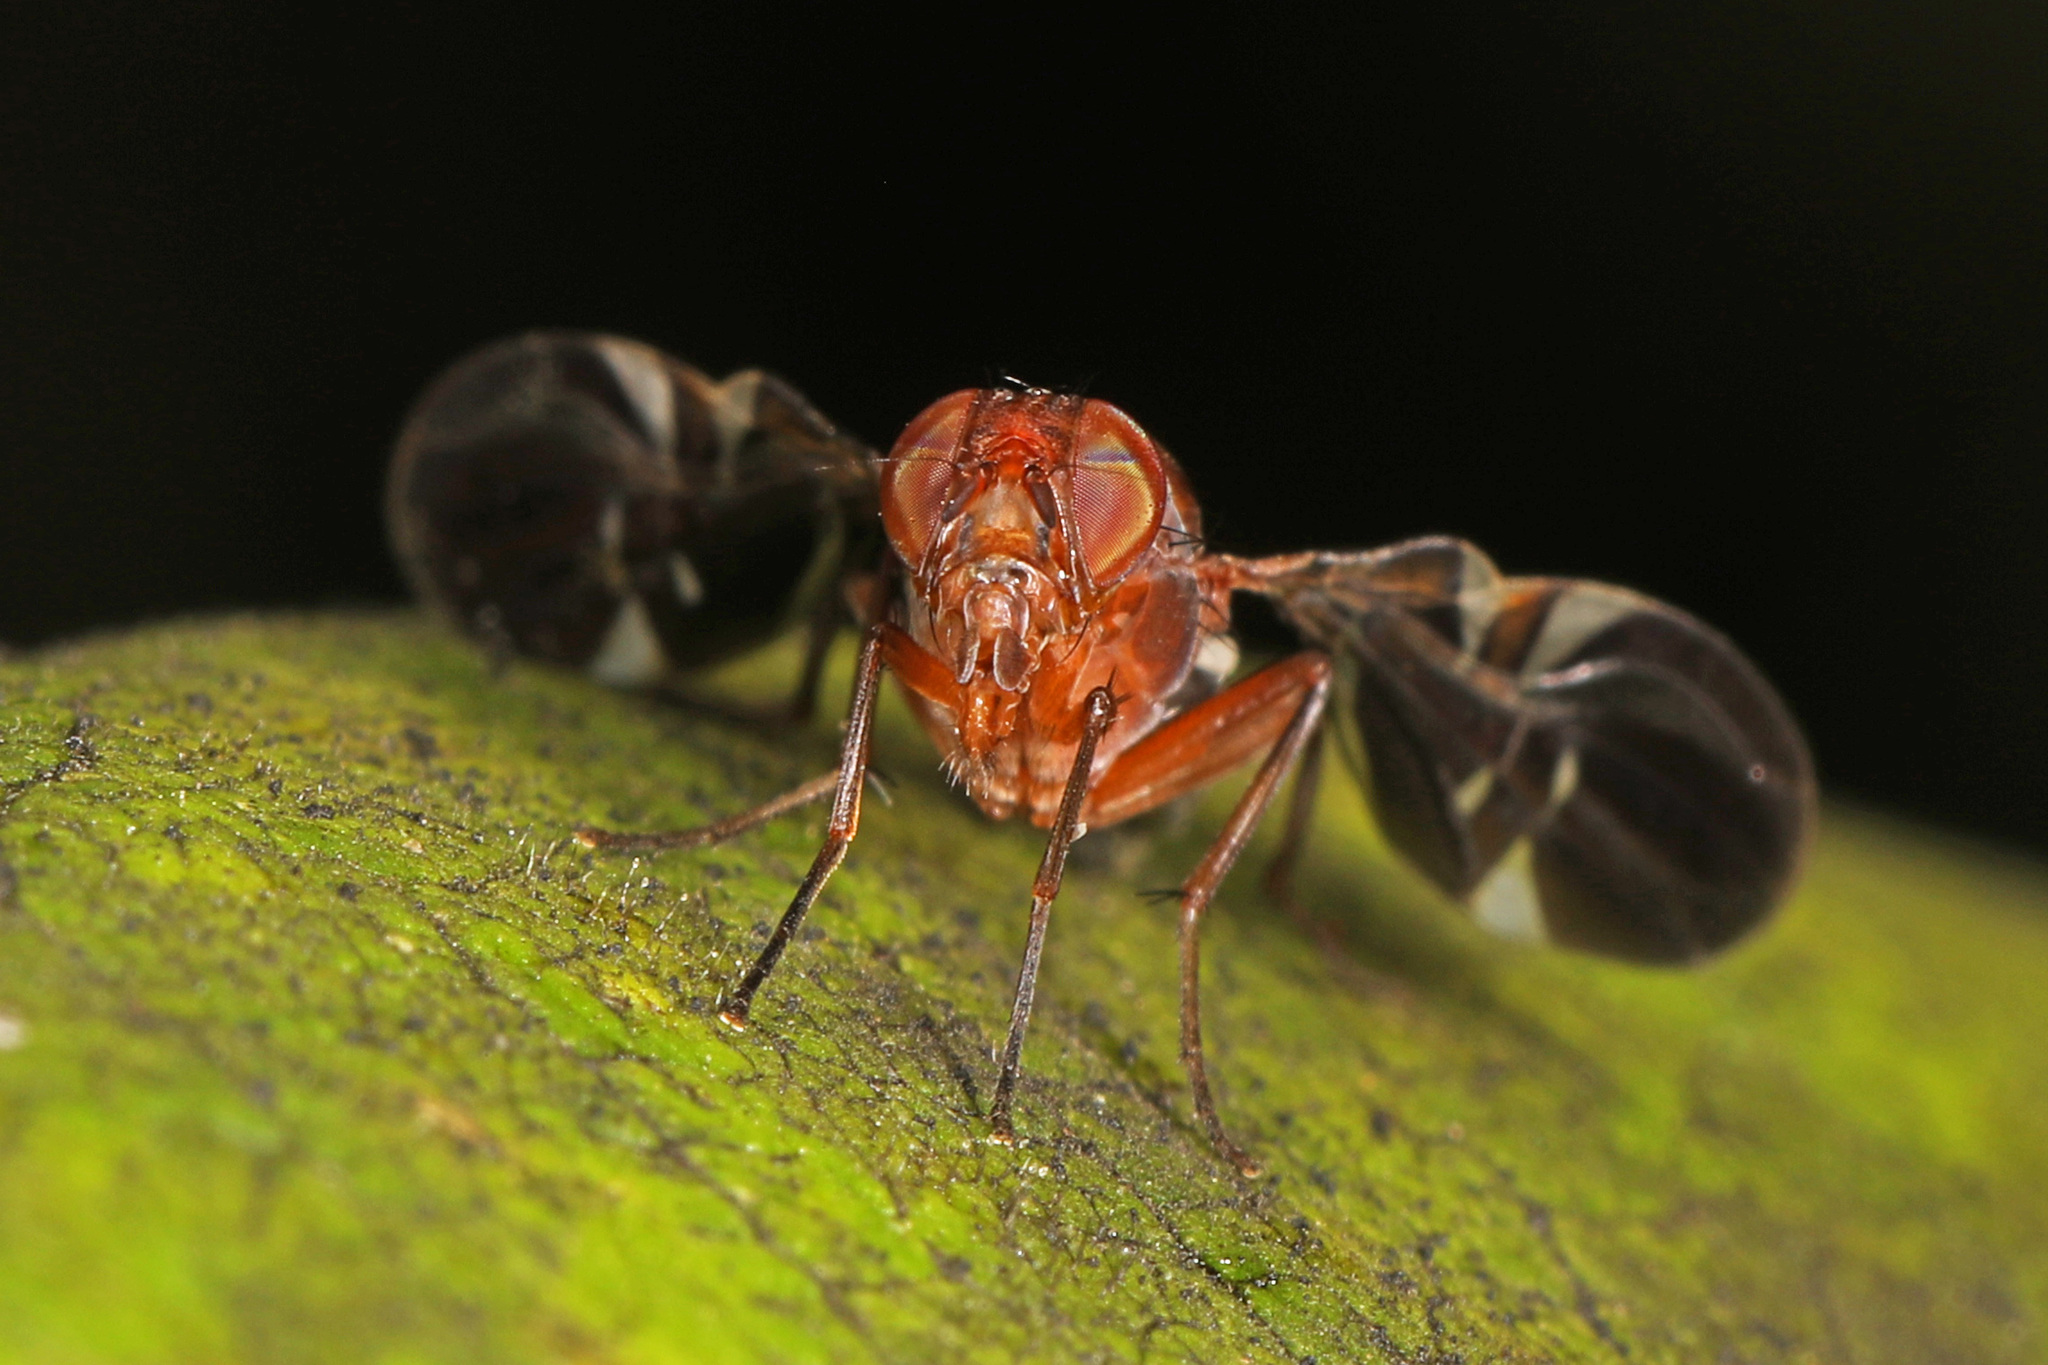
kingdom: Animalia
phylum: Arthropoda
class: Insecta
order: Diptera
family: Ulidiidae
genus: Delphinia
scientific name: Delphinia picta
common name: Common picture-winged fly
